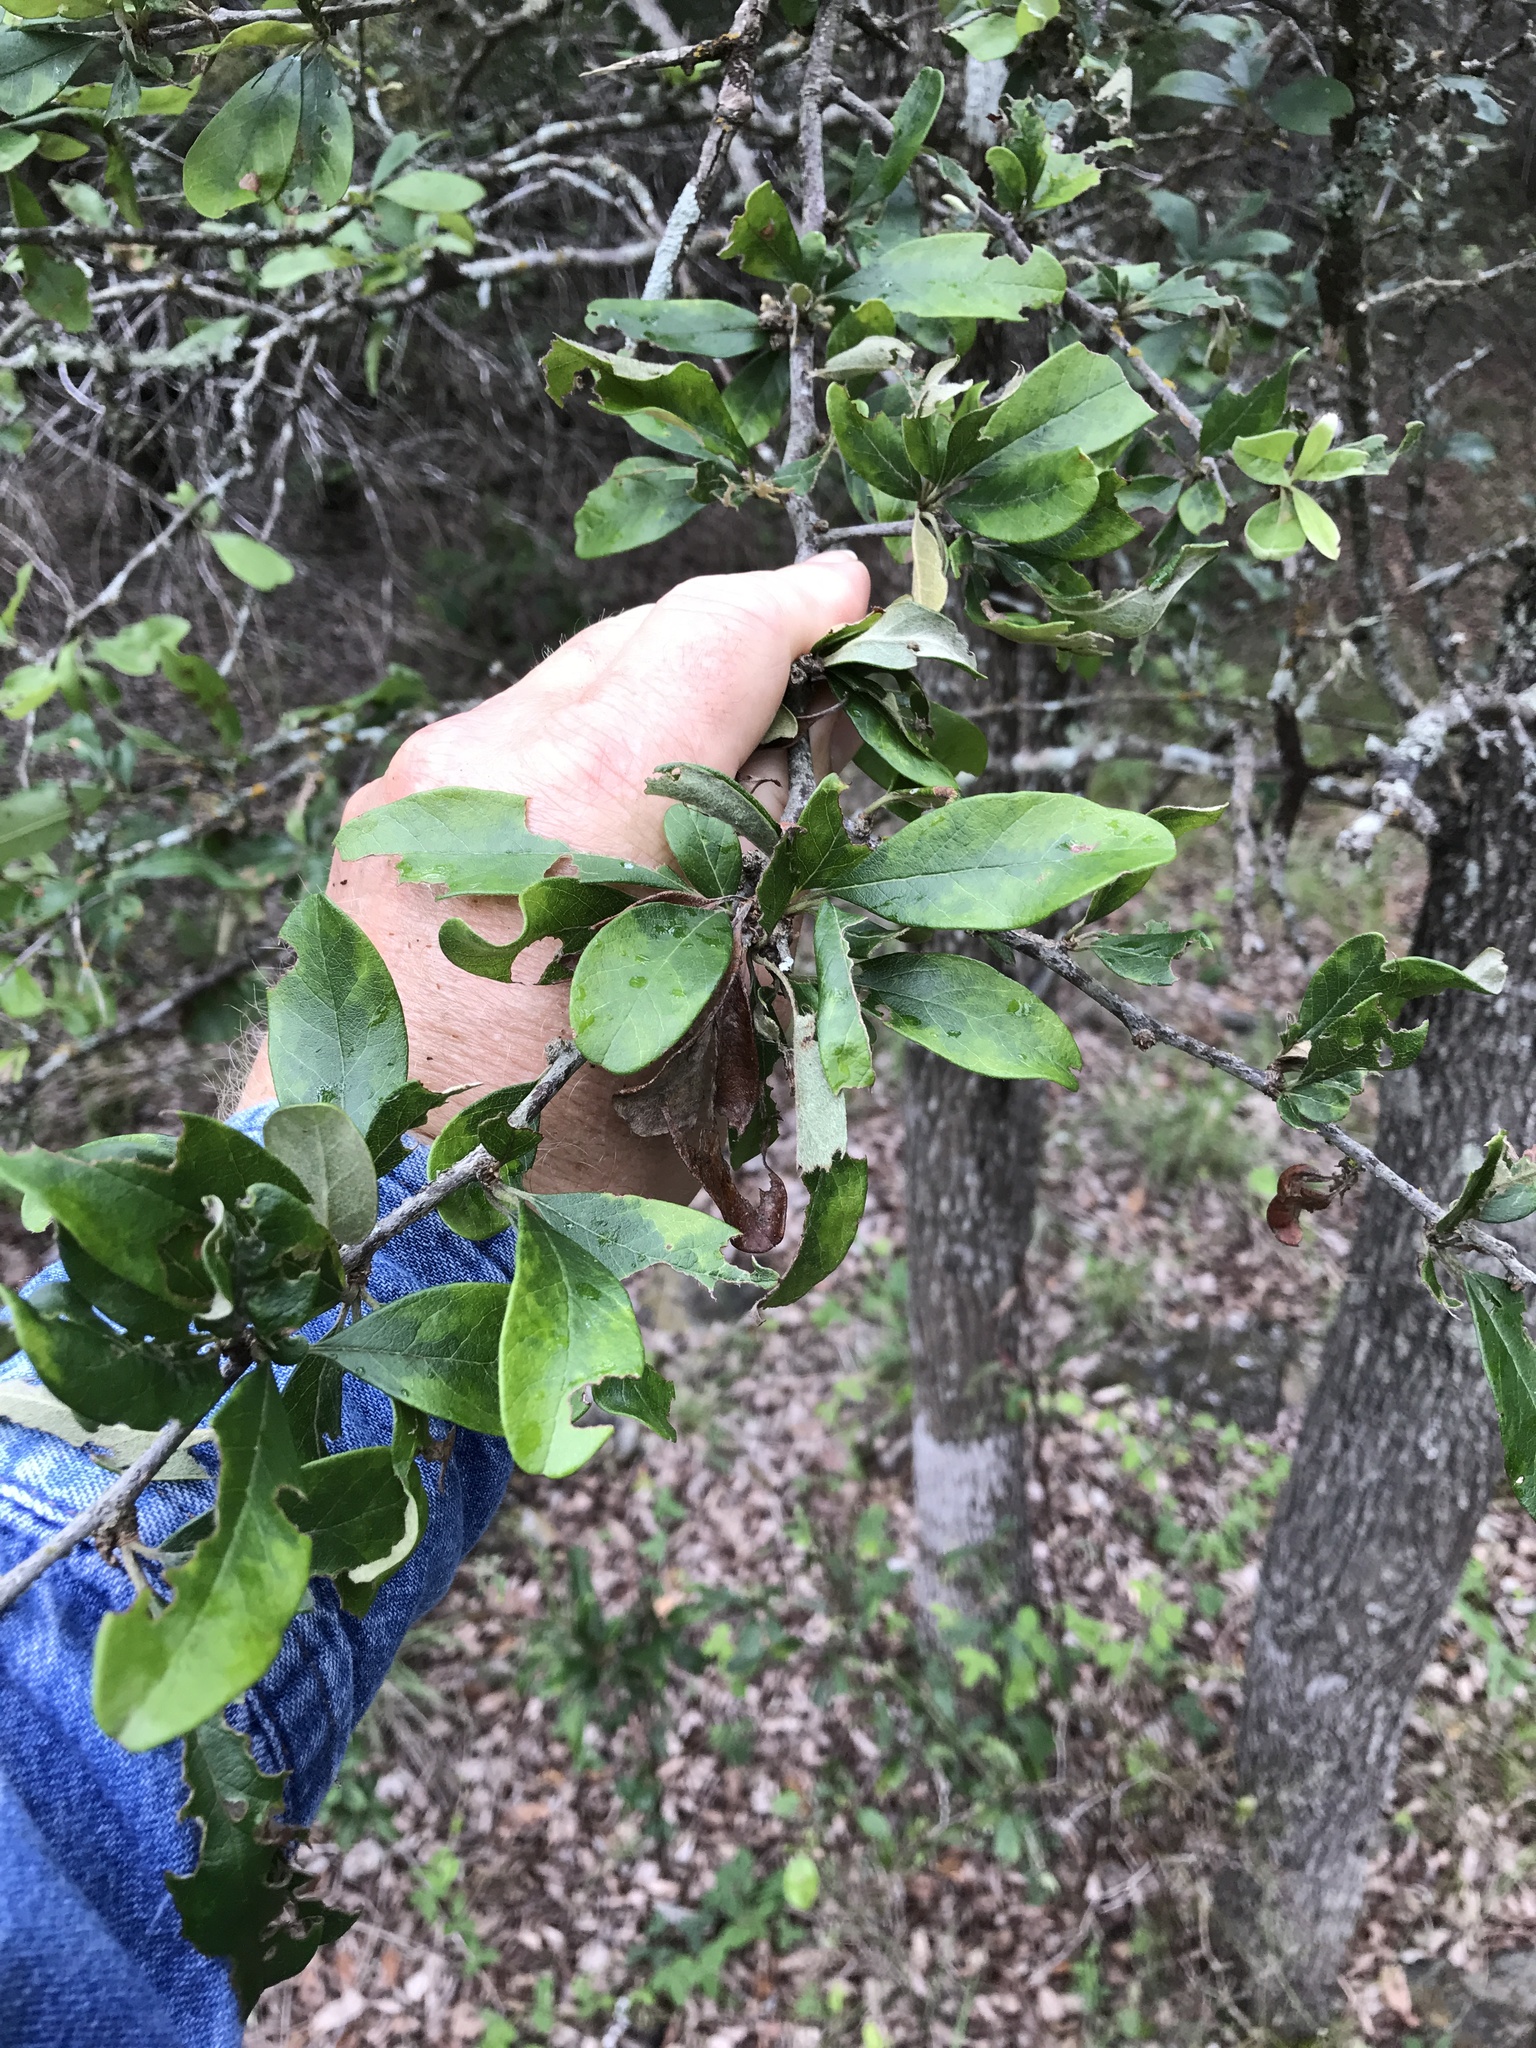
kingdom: Plantae
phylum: Tracheophyta
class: Magnoliopsida
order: Ericales
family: Sapotaceae
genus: Sideroxylon
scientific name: Sideroxylon lanuginosum
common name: Chittamwood
